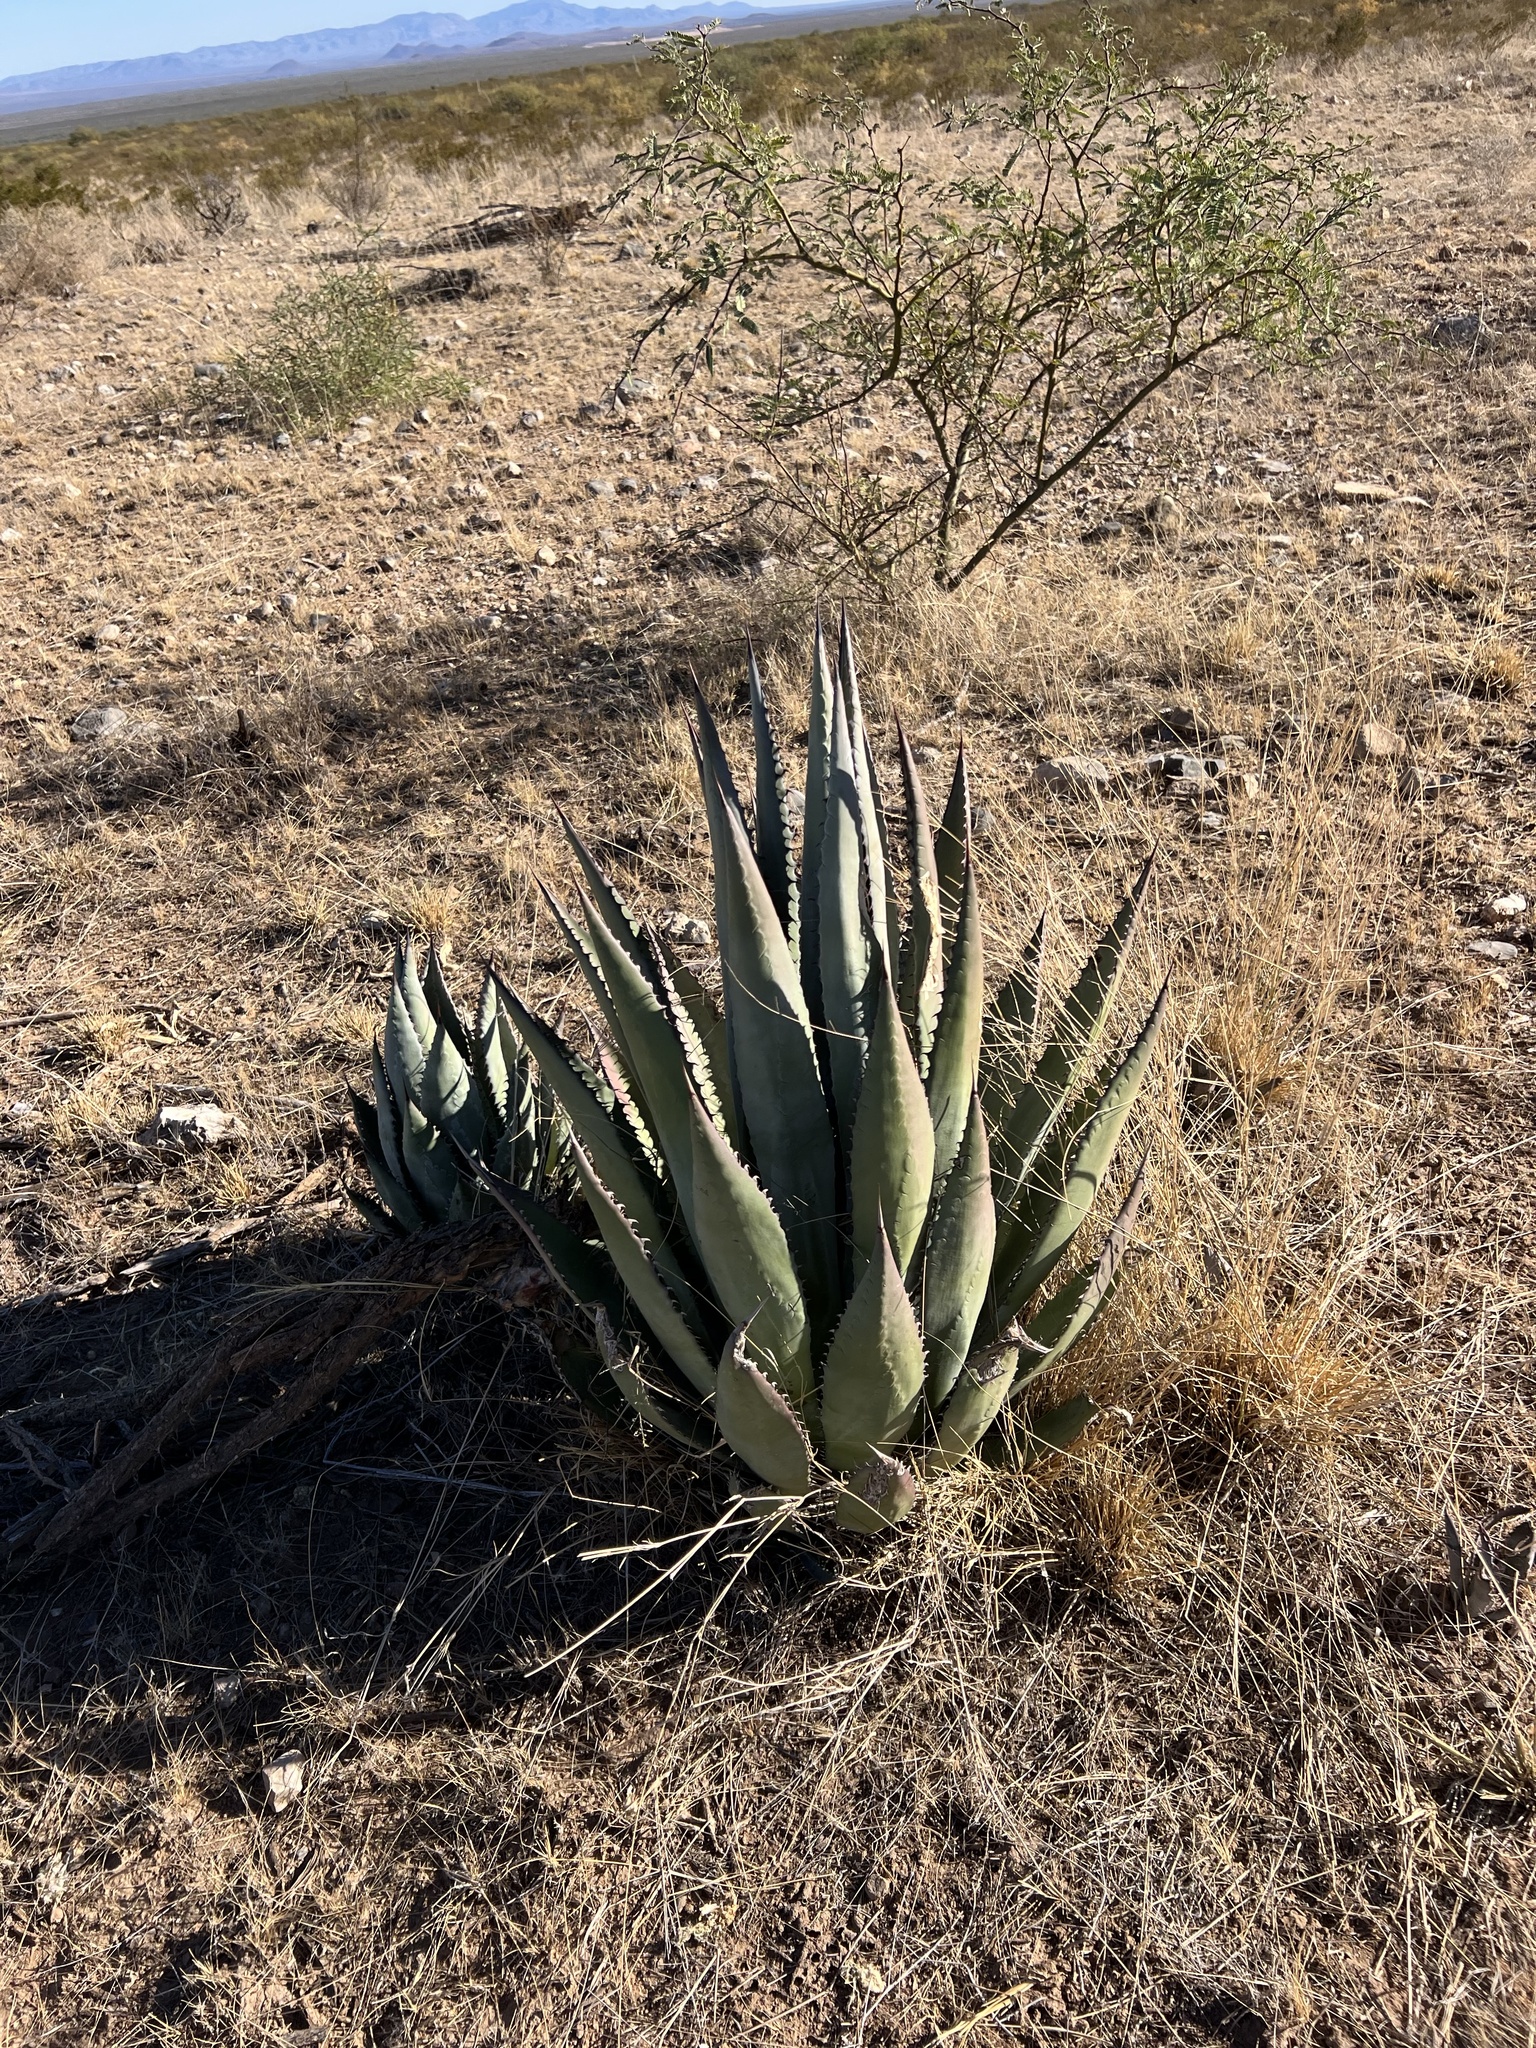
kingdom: Plantae
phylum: Tracheophyta
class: Liliopsida
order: Asparagales
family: Asparagaceae
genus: Agave
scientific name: Agave palmeri
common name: Palmer agave
